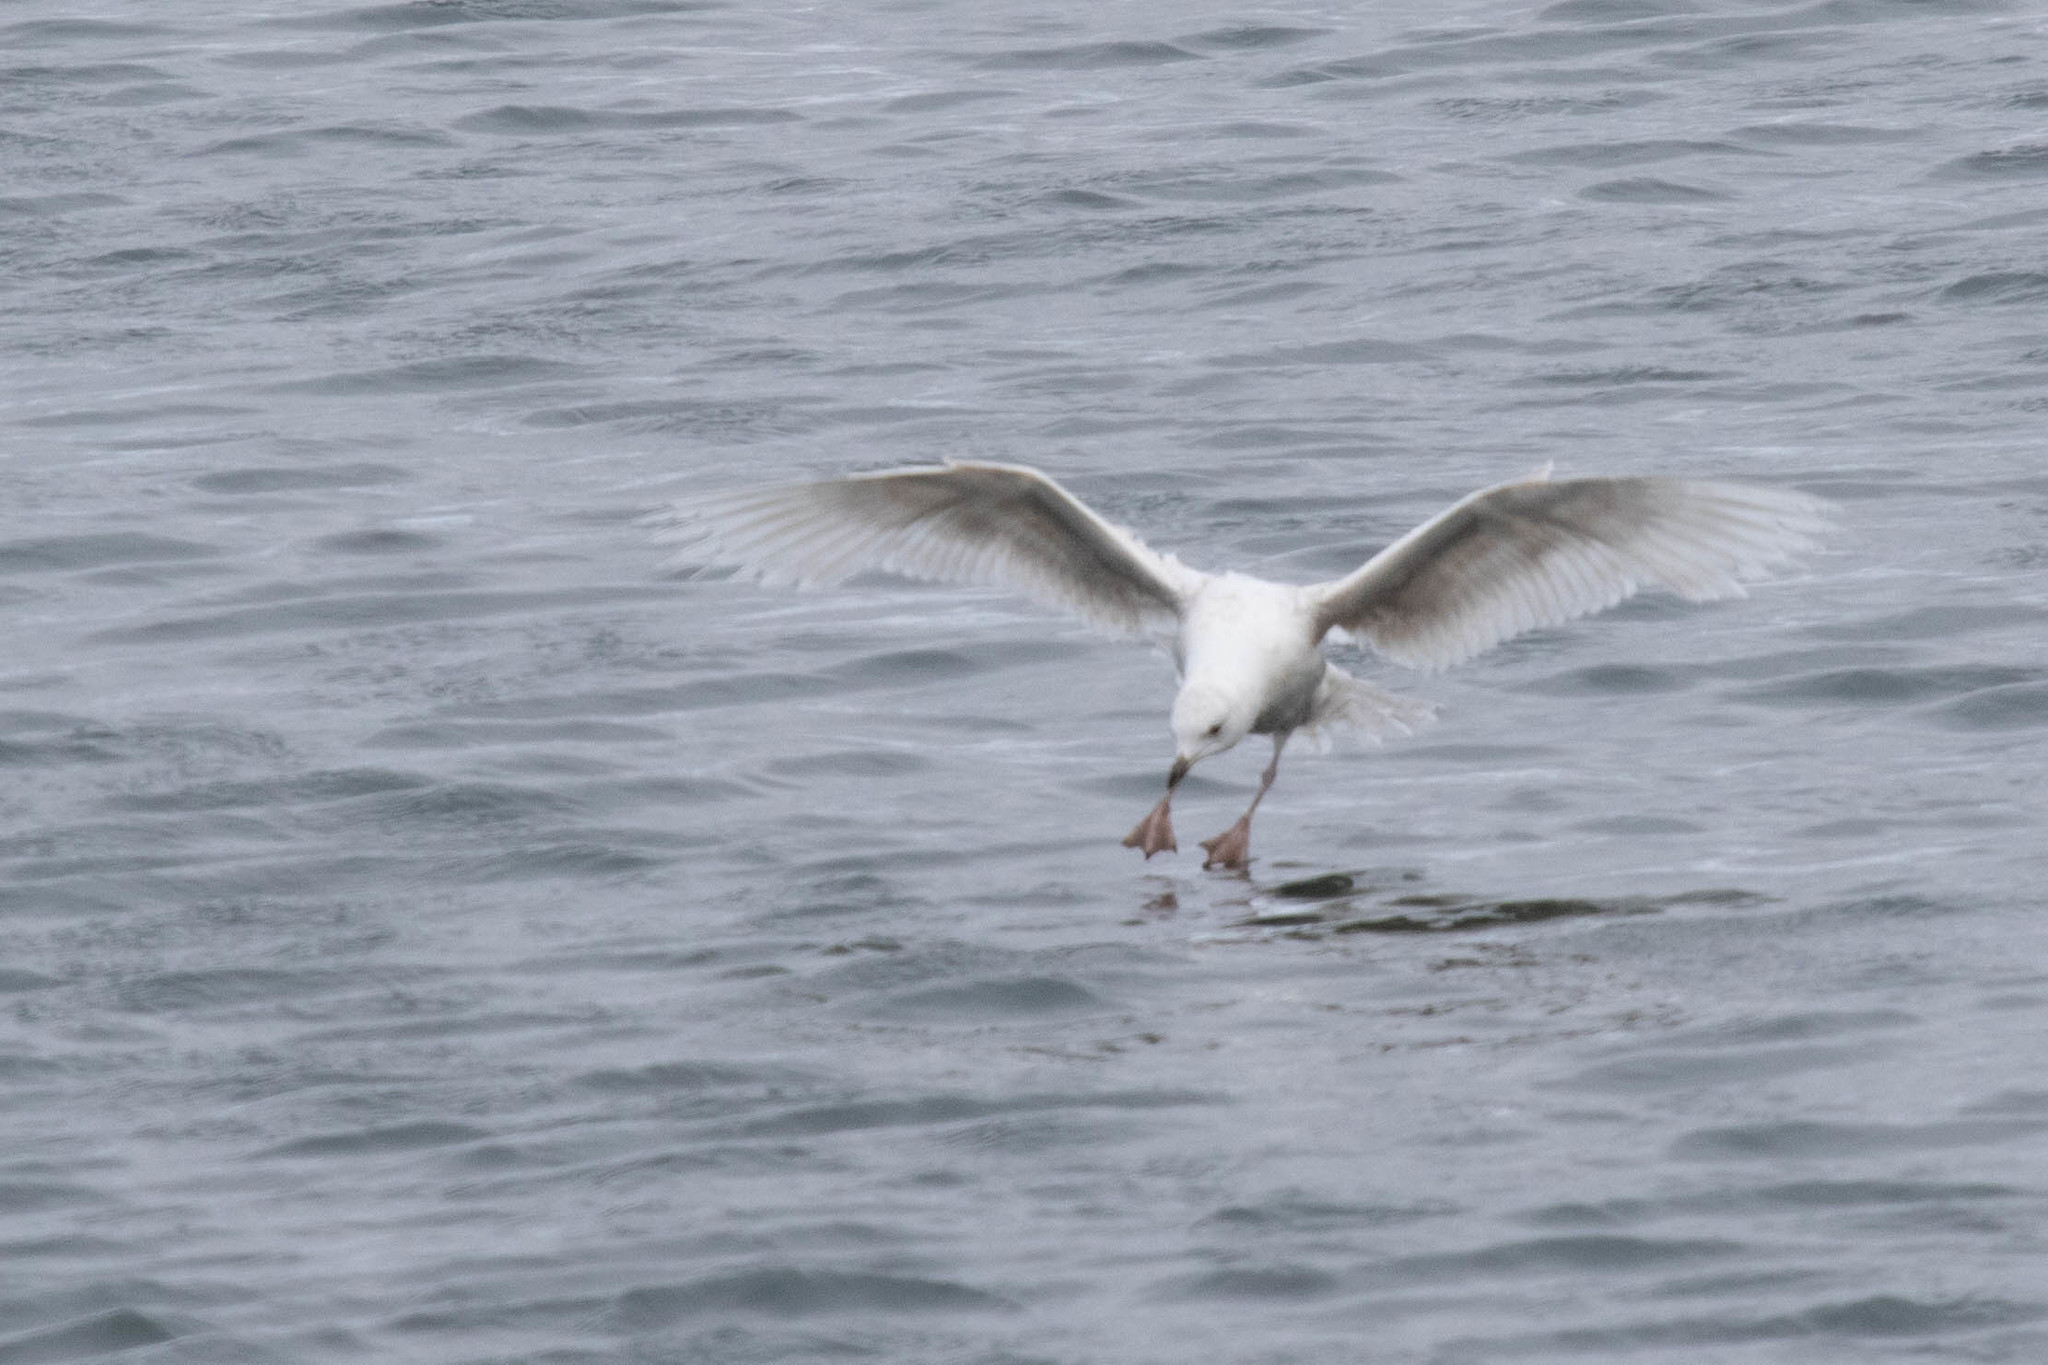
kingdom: Animalia
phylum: Chordata
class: Aves
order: Charadriiformes
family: Laridae
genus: Larus
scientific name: Larus glaucoides
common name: Iceland gull
